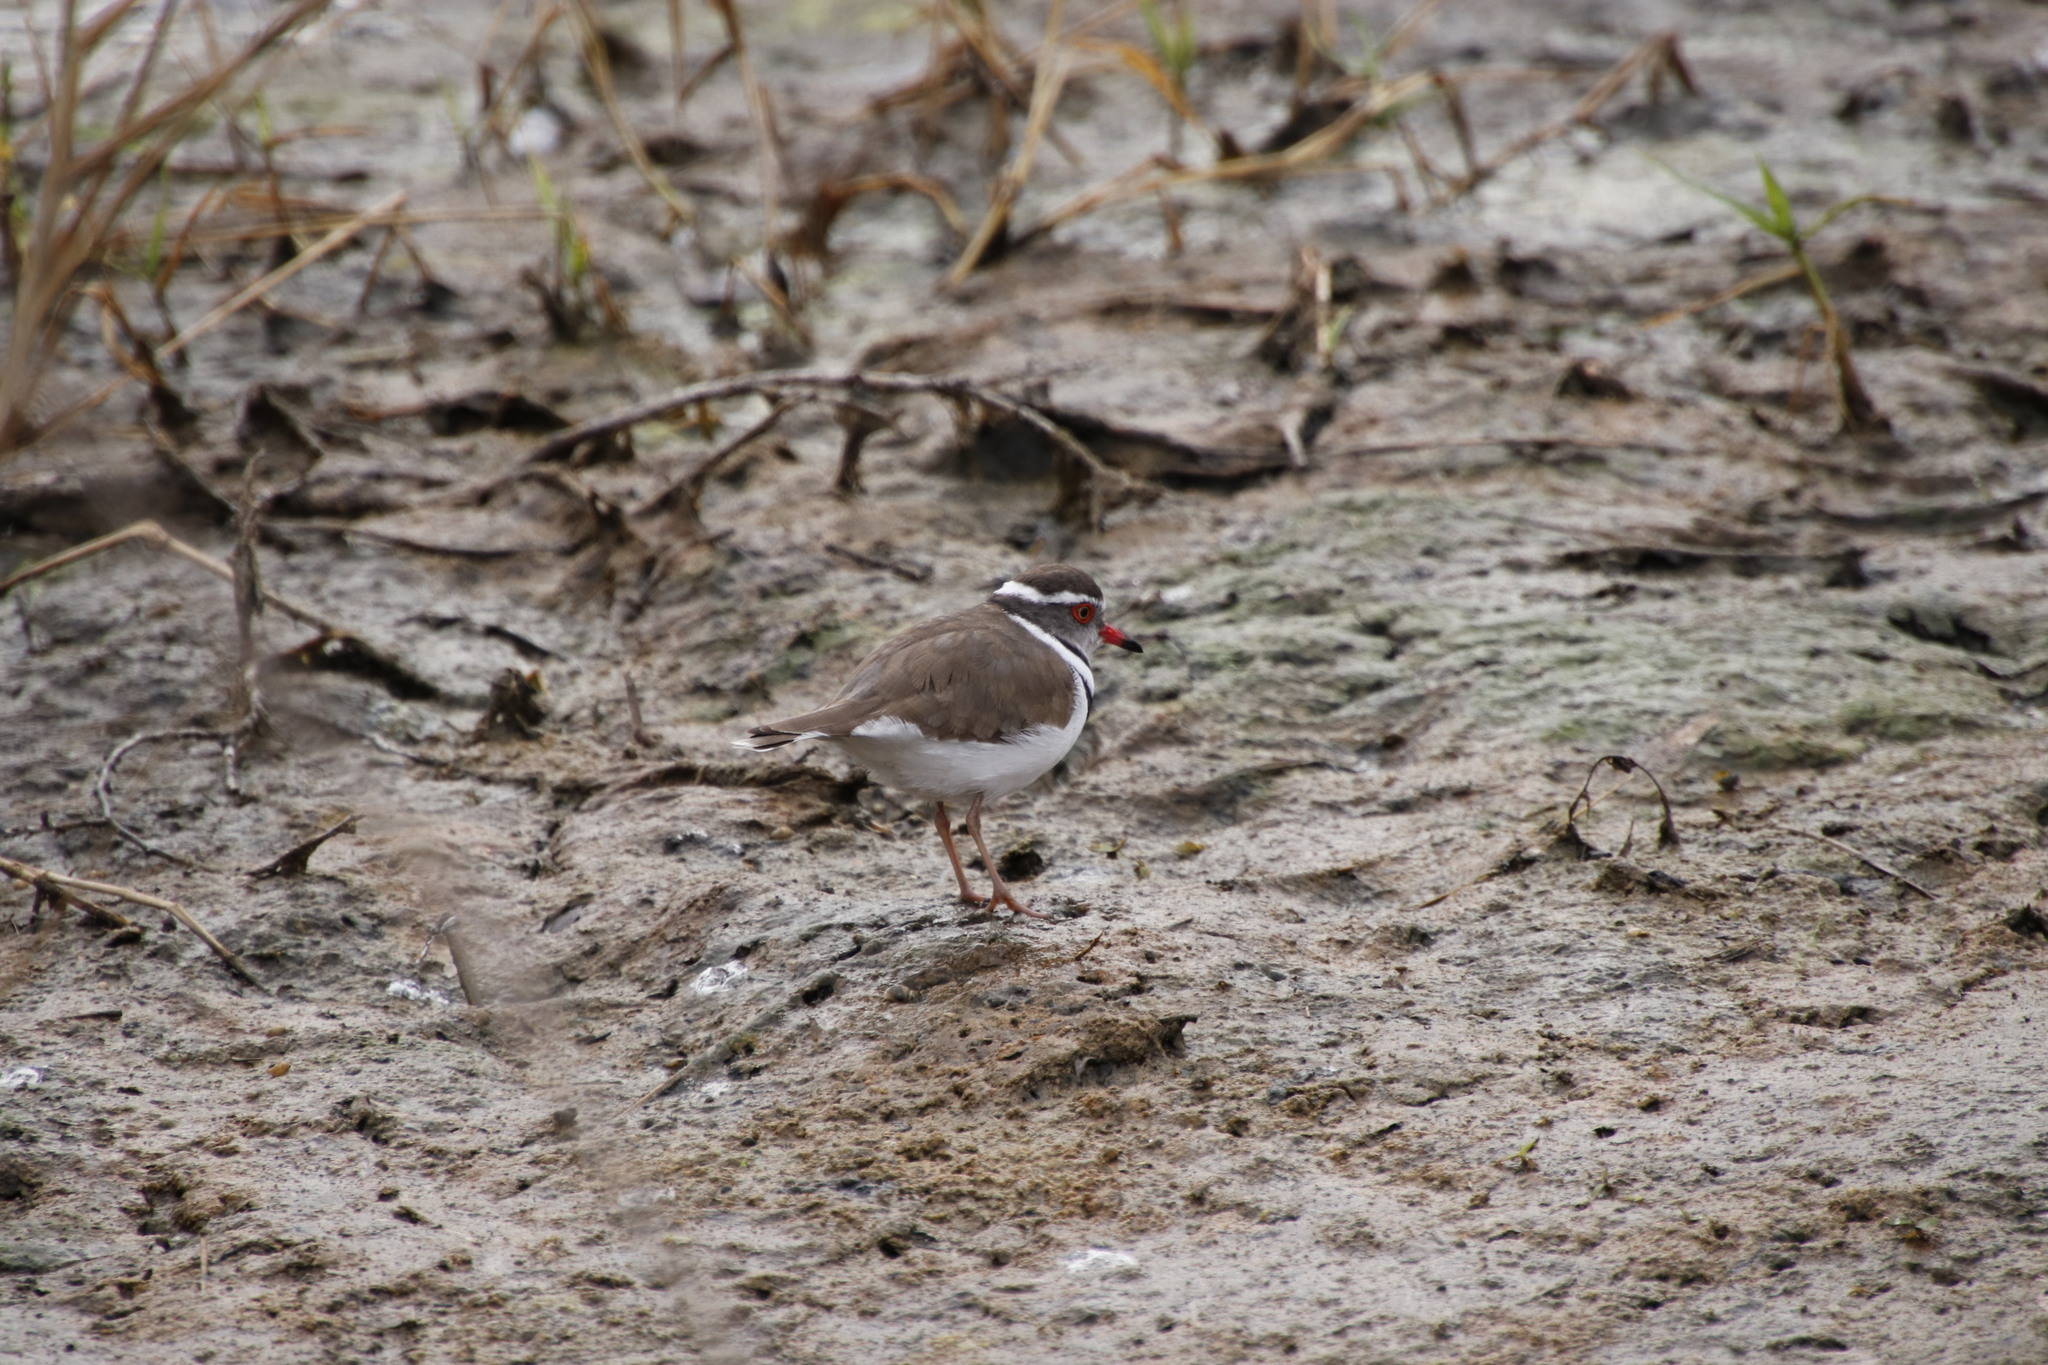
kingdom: Animalia
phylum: Chordata
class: Aves
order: Charadriiformes
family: Charadriidae
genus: Charadrius
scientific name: Charadrius tricollaris
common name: Three-banded plover
